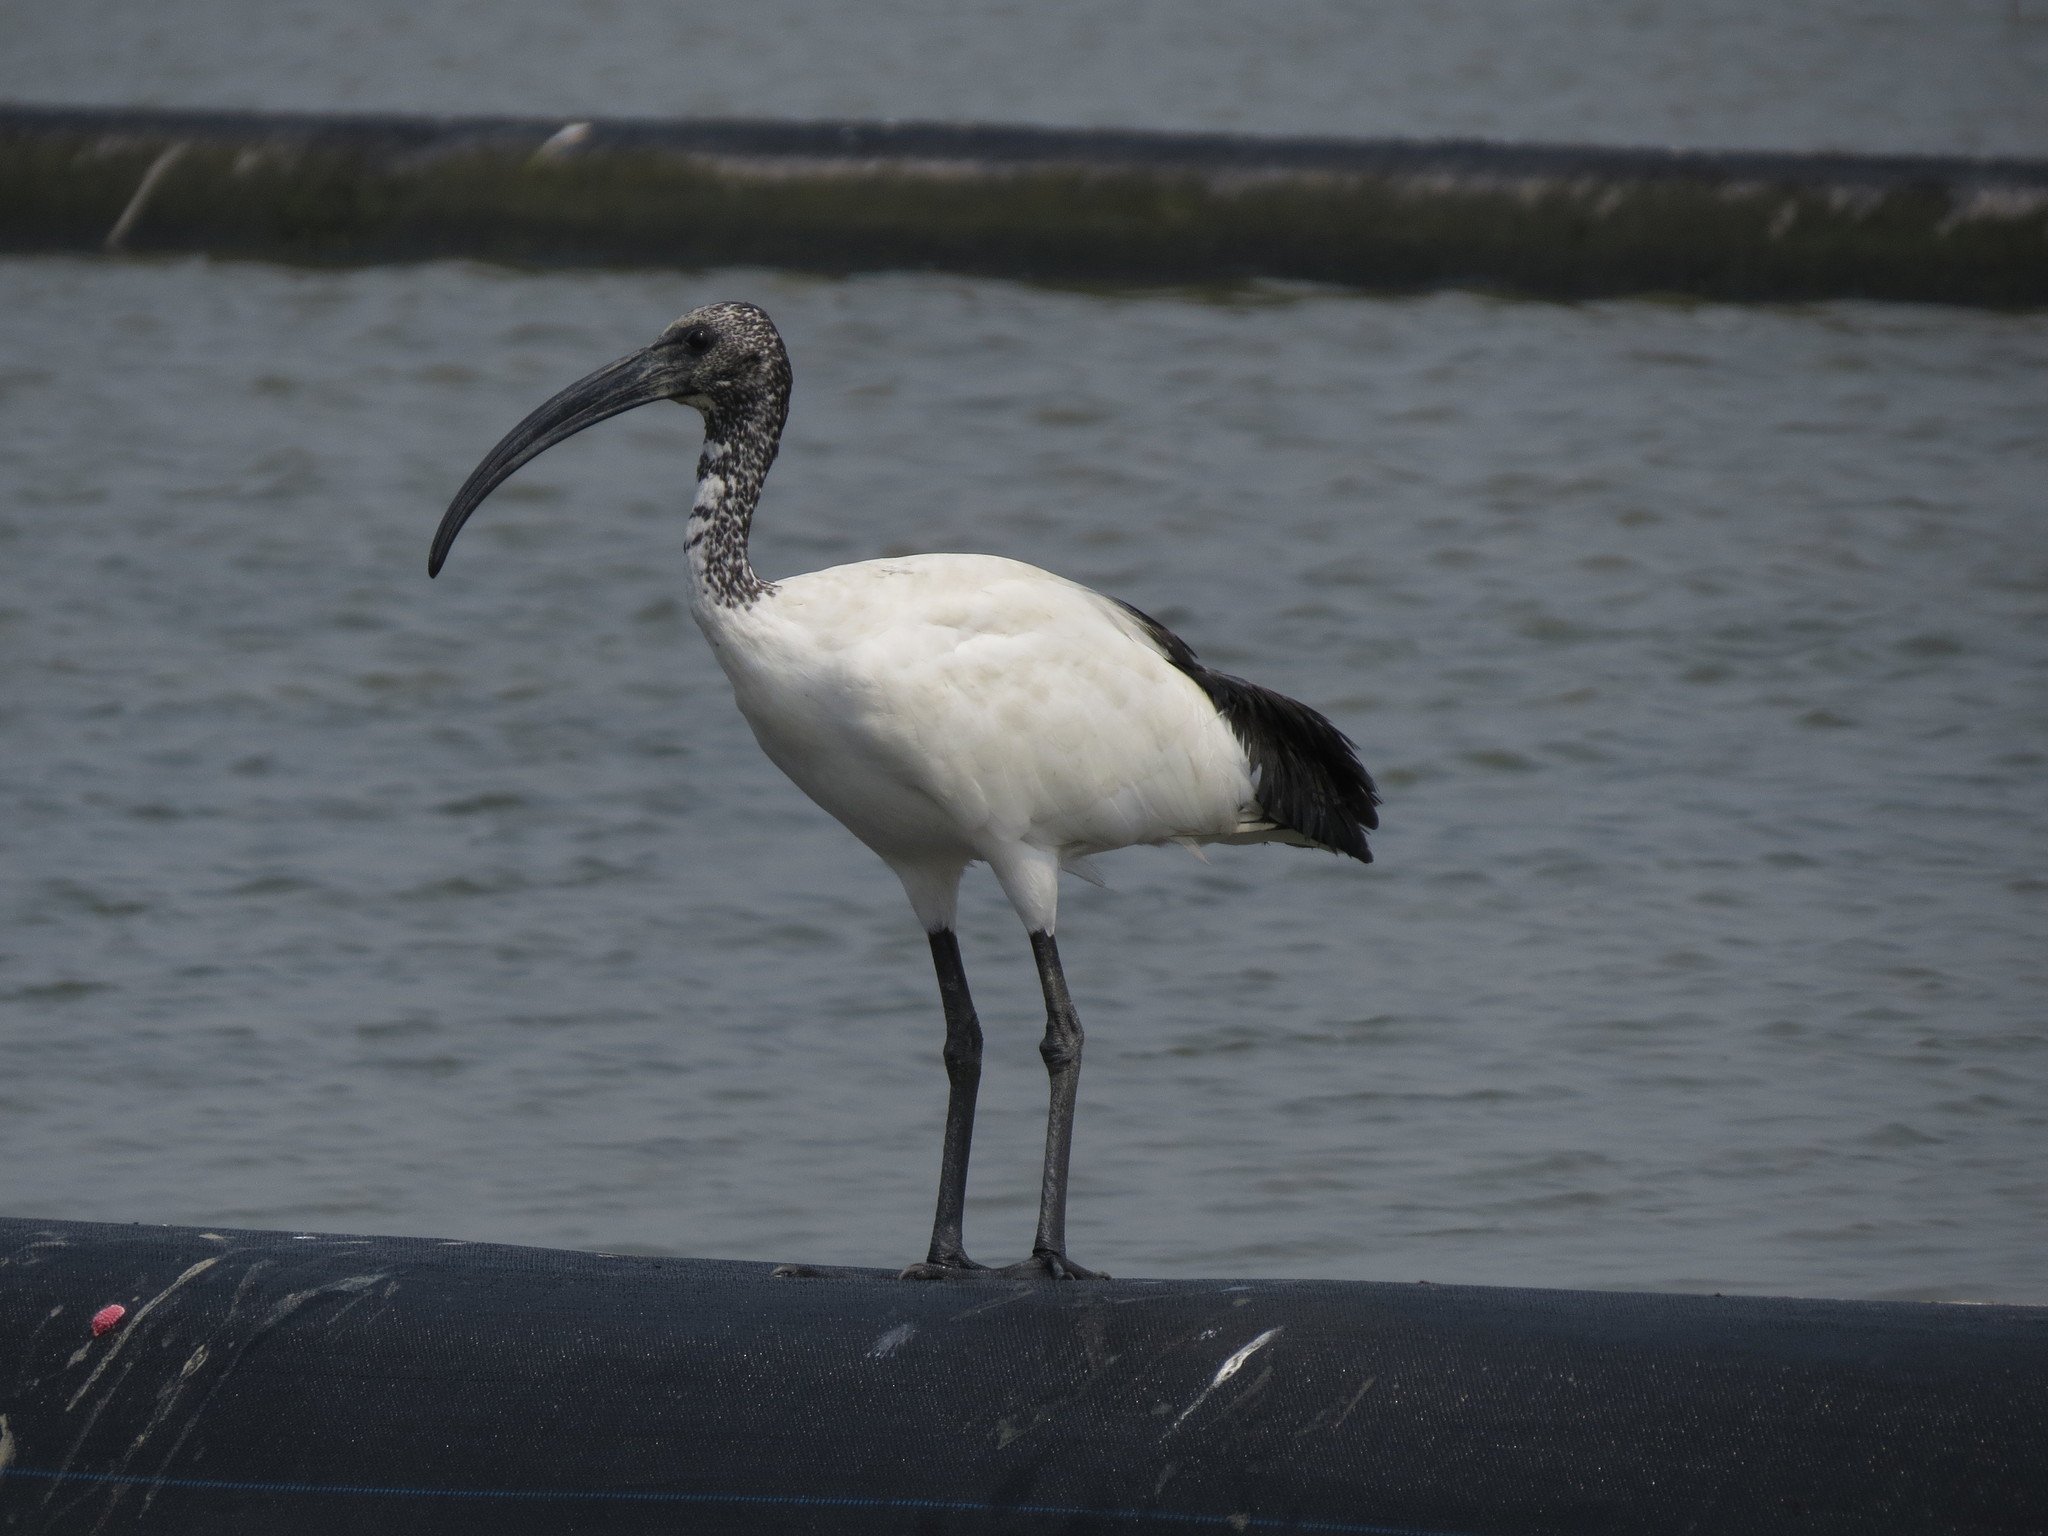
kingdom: Animalia
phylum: Chordata
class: Aves
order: Pelecaniformes
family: Threskiornithidae
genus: Threskiornis
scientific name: Threskiornis aethiopicus
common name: Sacred ibis
